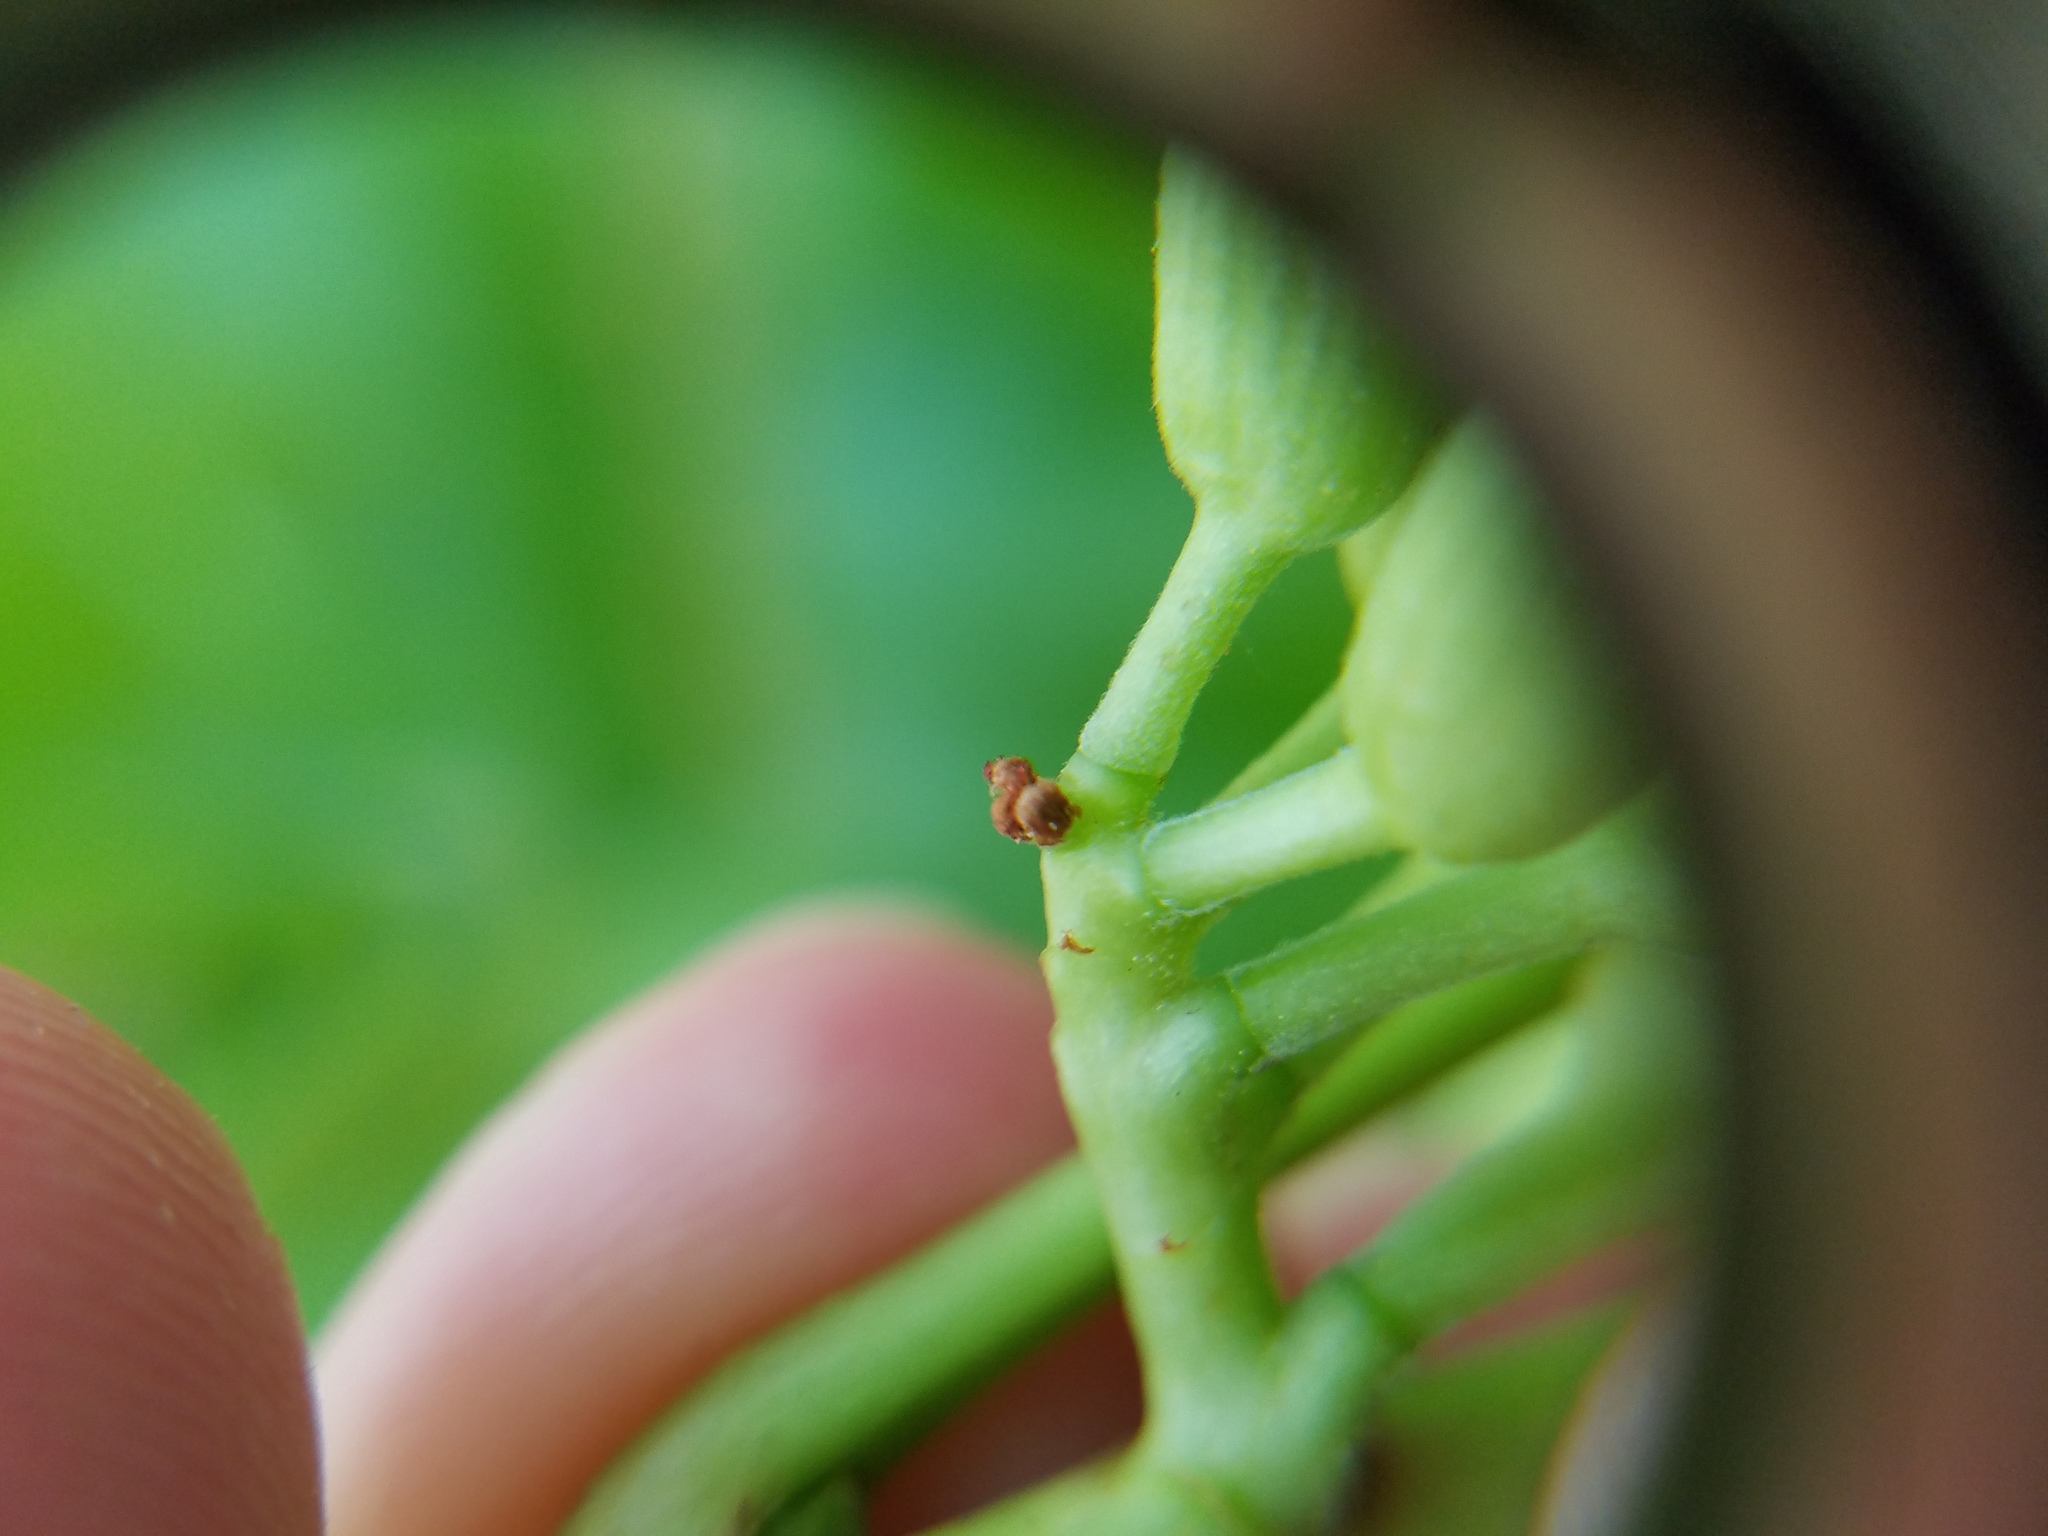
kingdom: Plantae
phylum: Tracheophyta
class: Magnoliopsida
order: Sapindales
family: Sapindaceae
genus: Aesculus
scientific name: Aesculus sylvatica
